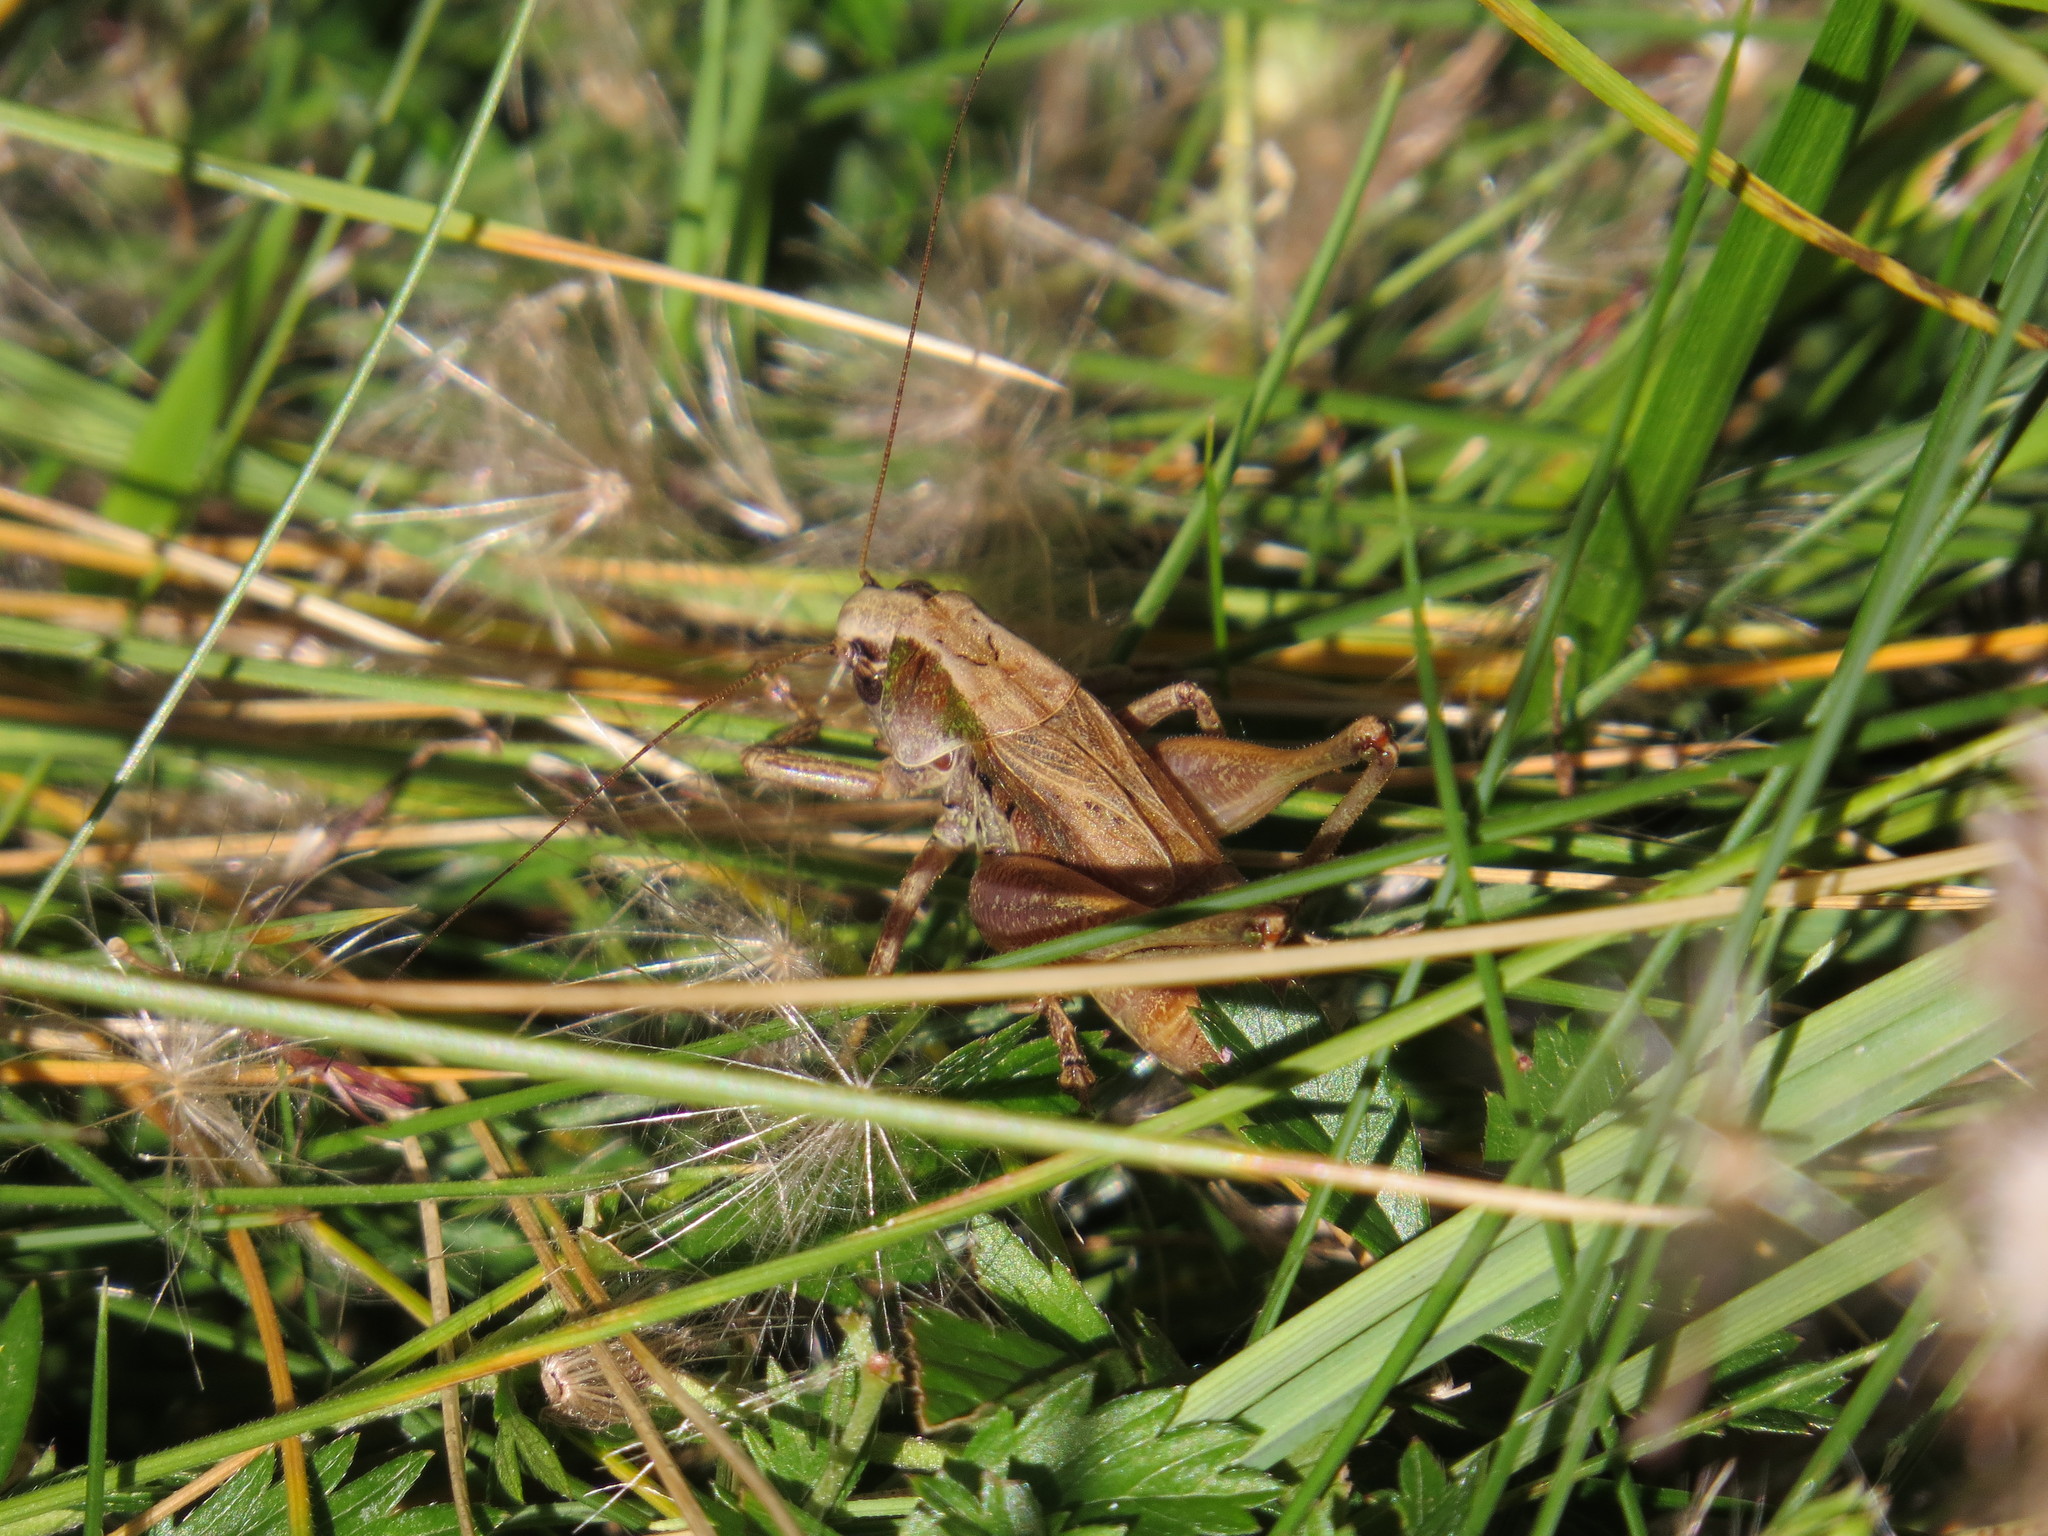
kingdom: Animalia
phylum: Arthropoda
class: Insecta
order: Orthoptera
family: Tettigoniidae
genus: Metrioptera
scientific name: Metrioptera saussuriana
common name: Purple meadow bush-cricket
